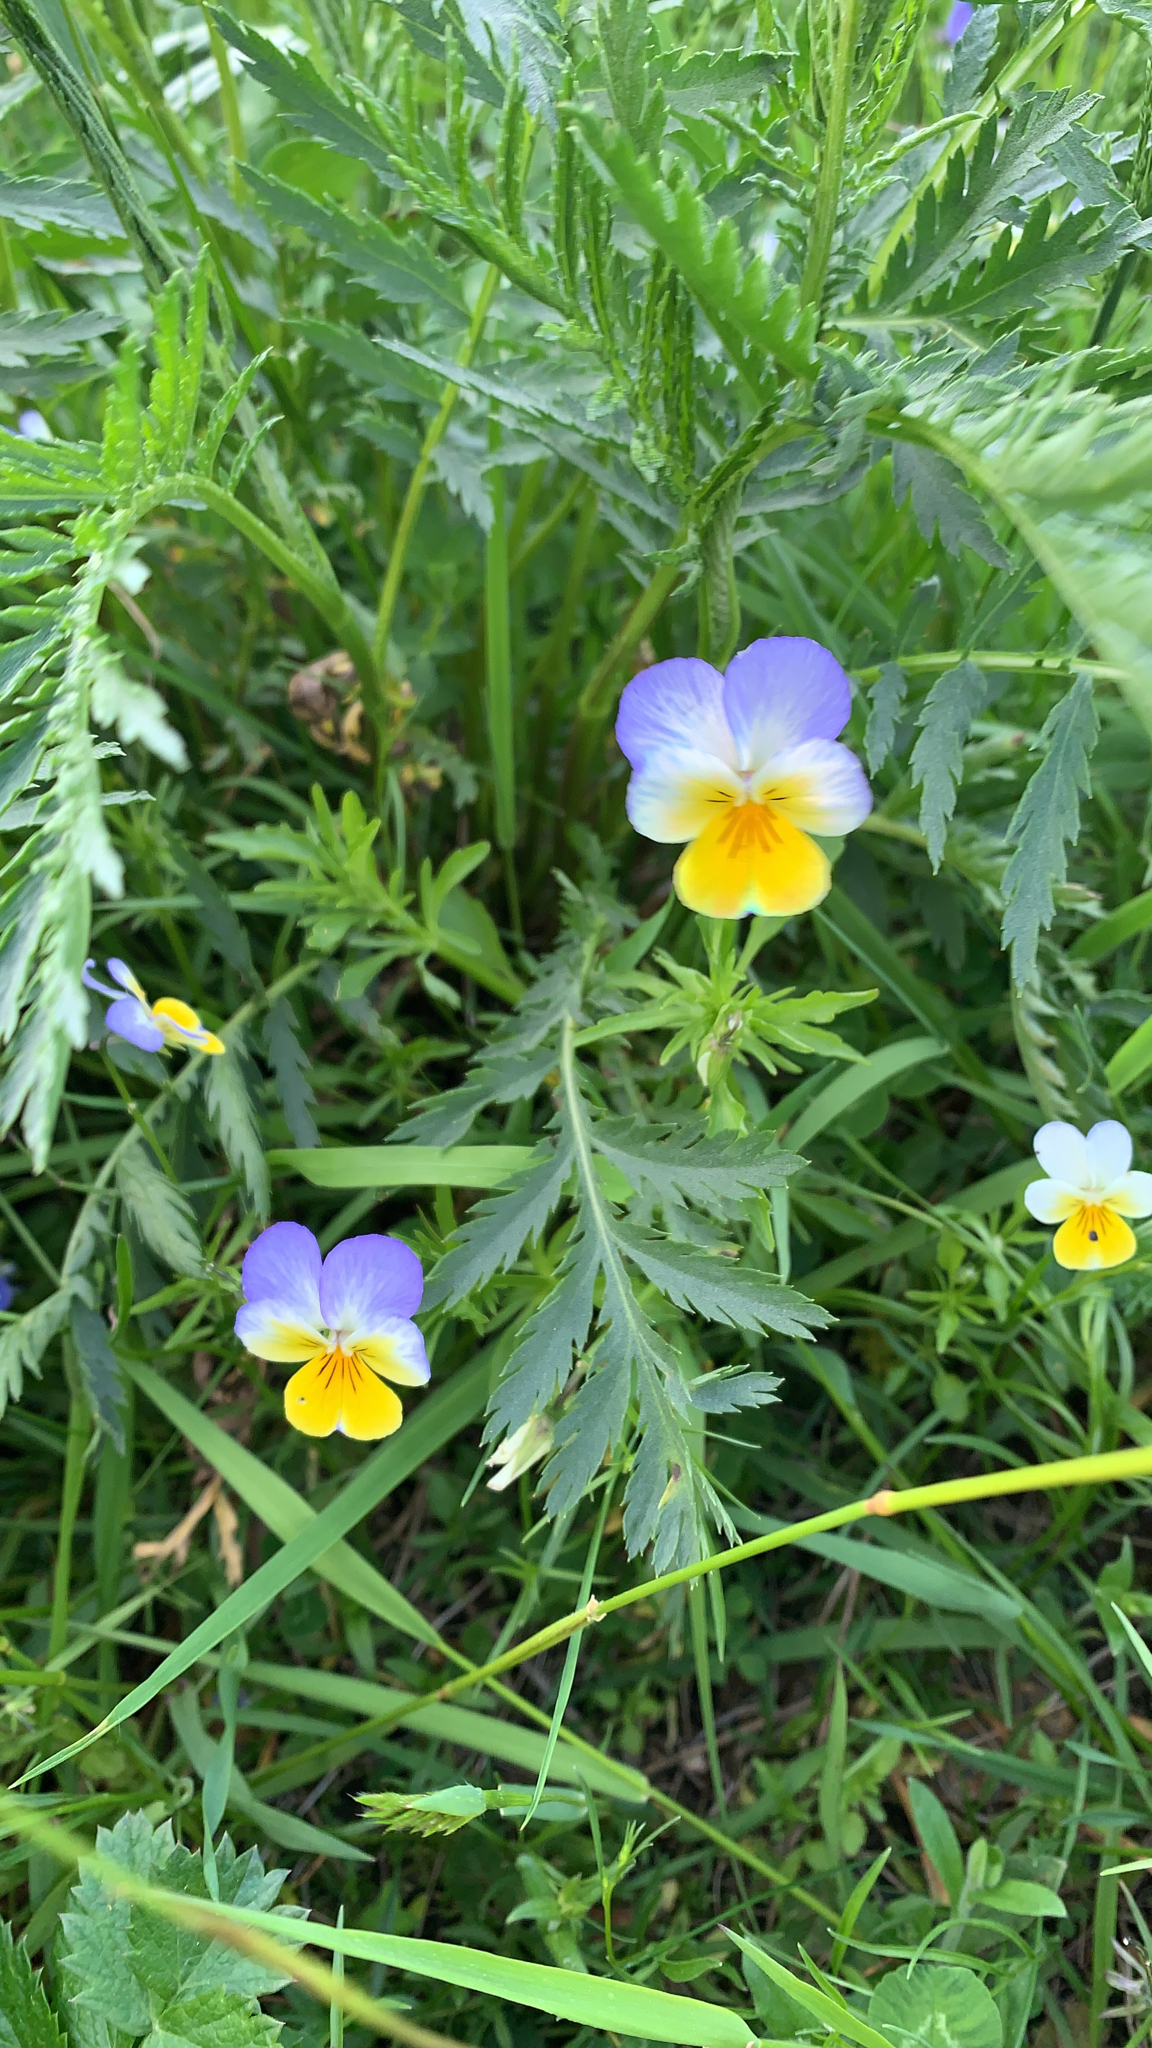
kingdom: Plantae
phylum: Tracheophyta
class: Magnoliopsida
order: Malpighiales
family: Violaceae
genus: Viola
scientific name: Viola tricolor
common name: Pansy
